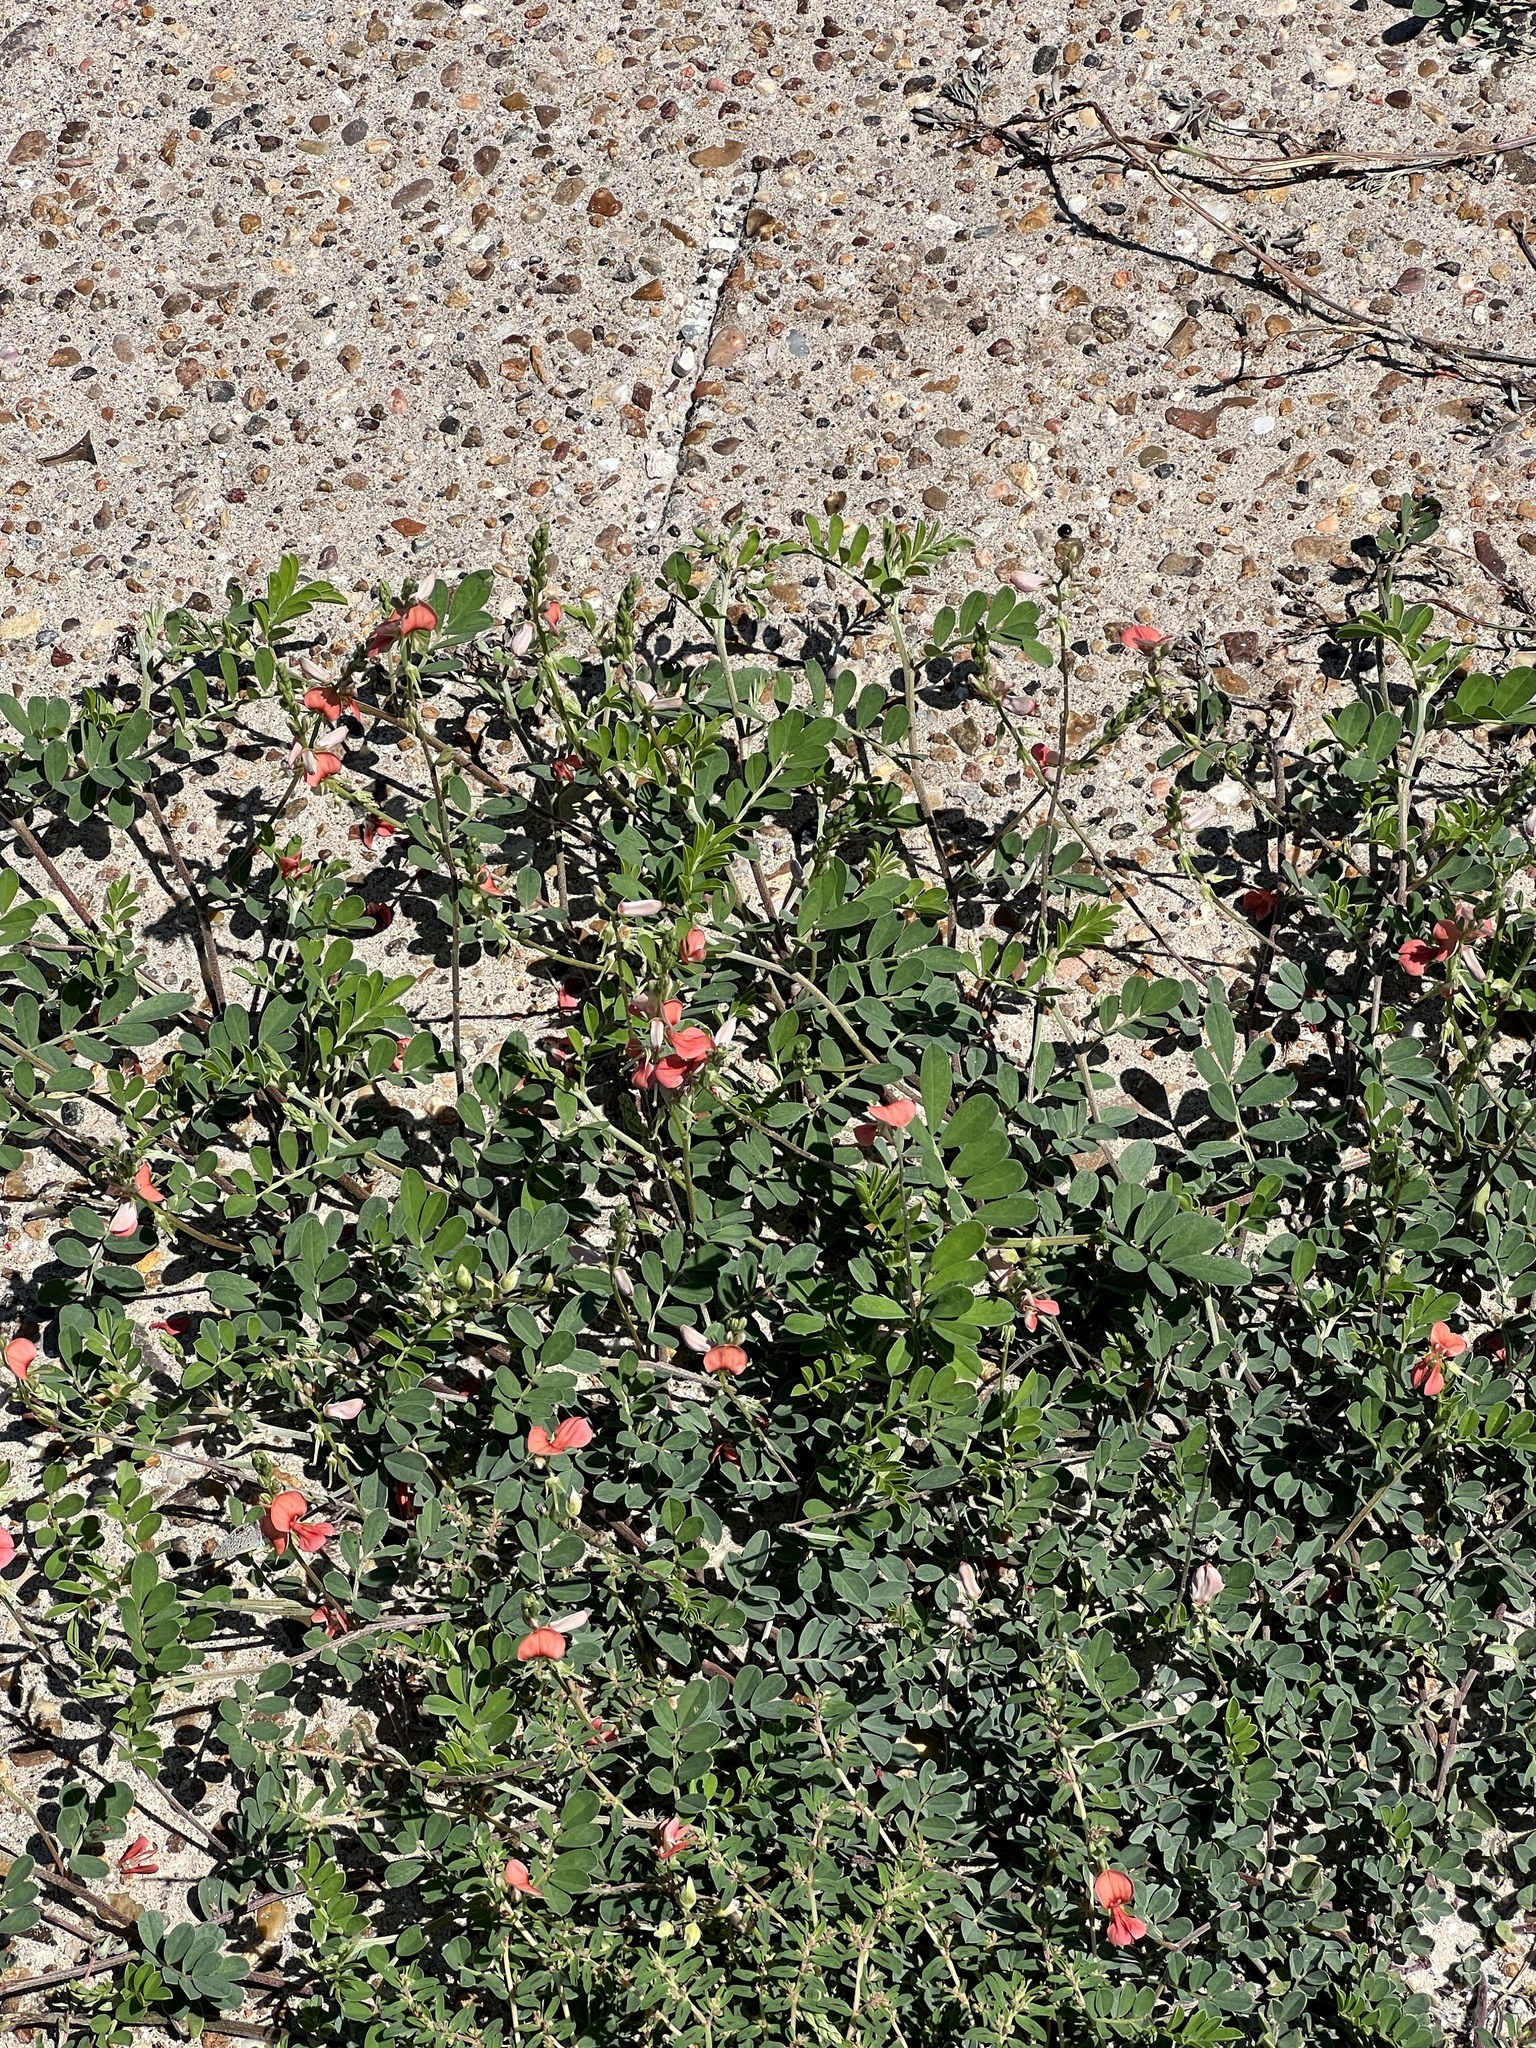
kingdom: Plantae
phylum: Tracheophyta
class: Magnoliopsida
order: Fabales
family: Fabaceae
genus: Indigofera
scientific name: Indigofera miniata
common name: Coast indigo
